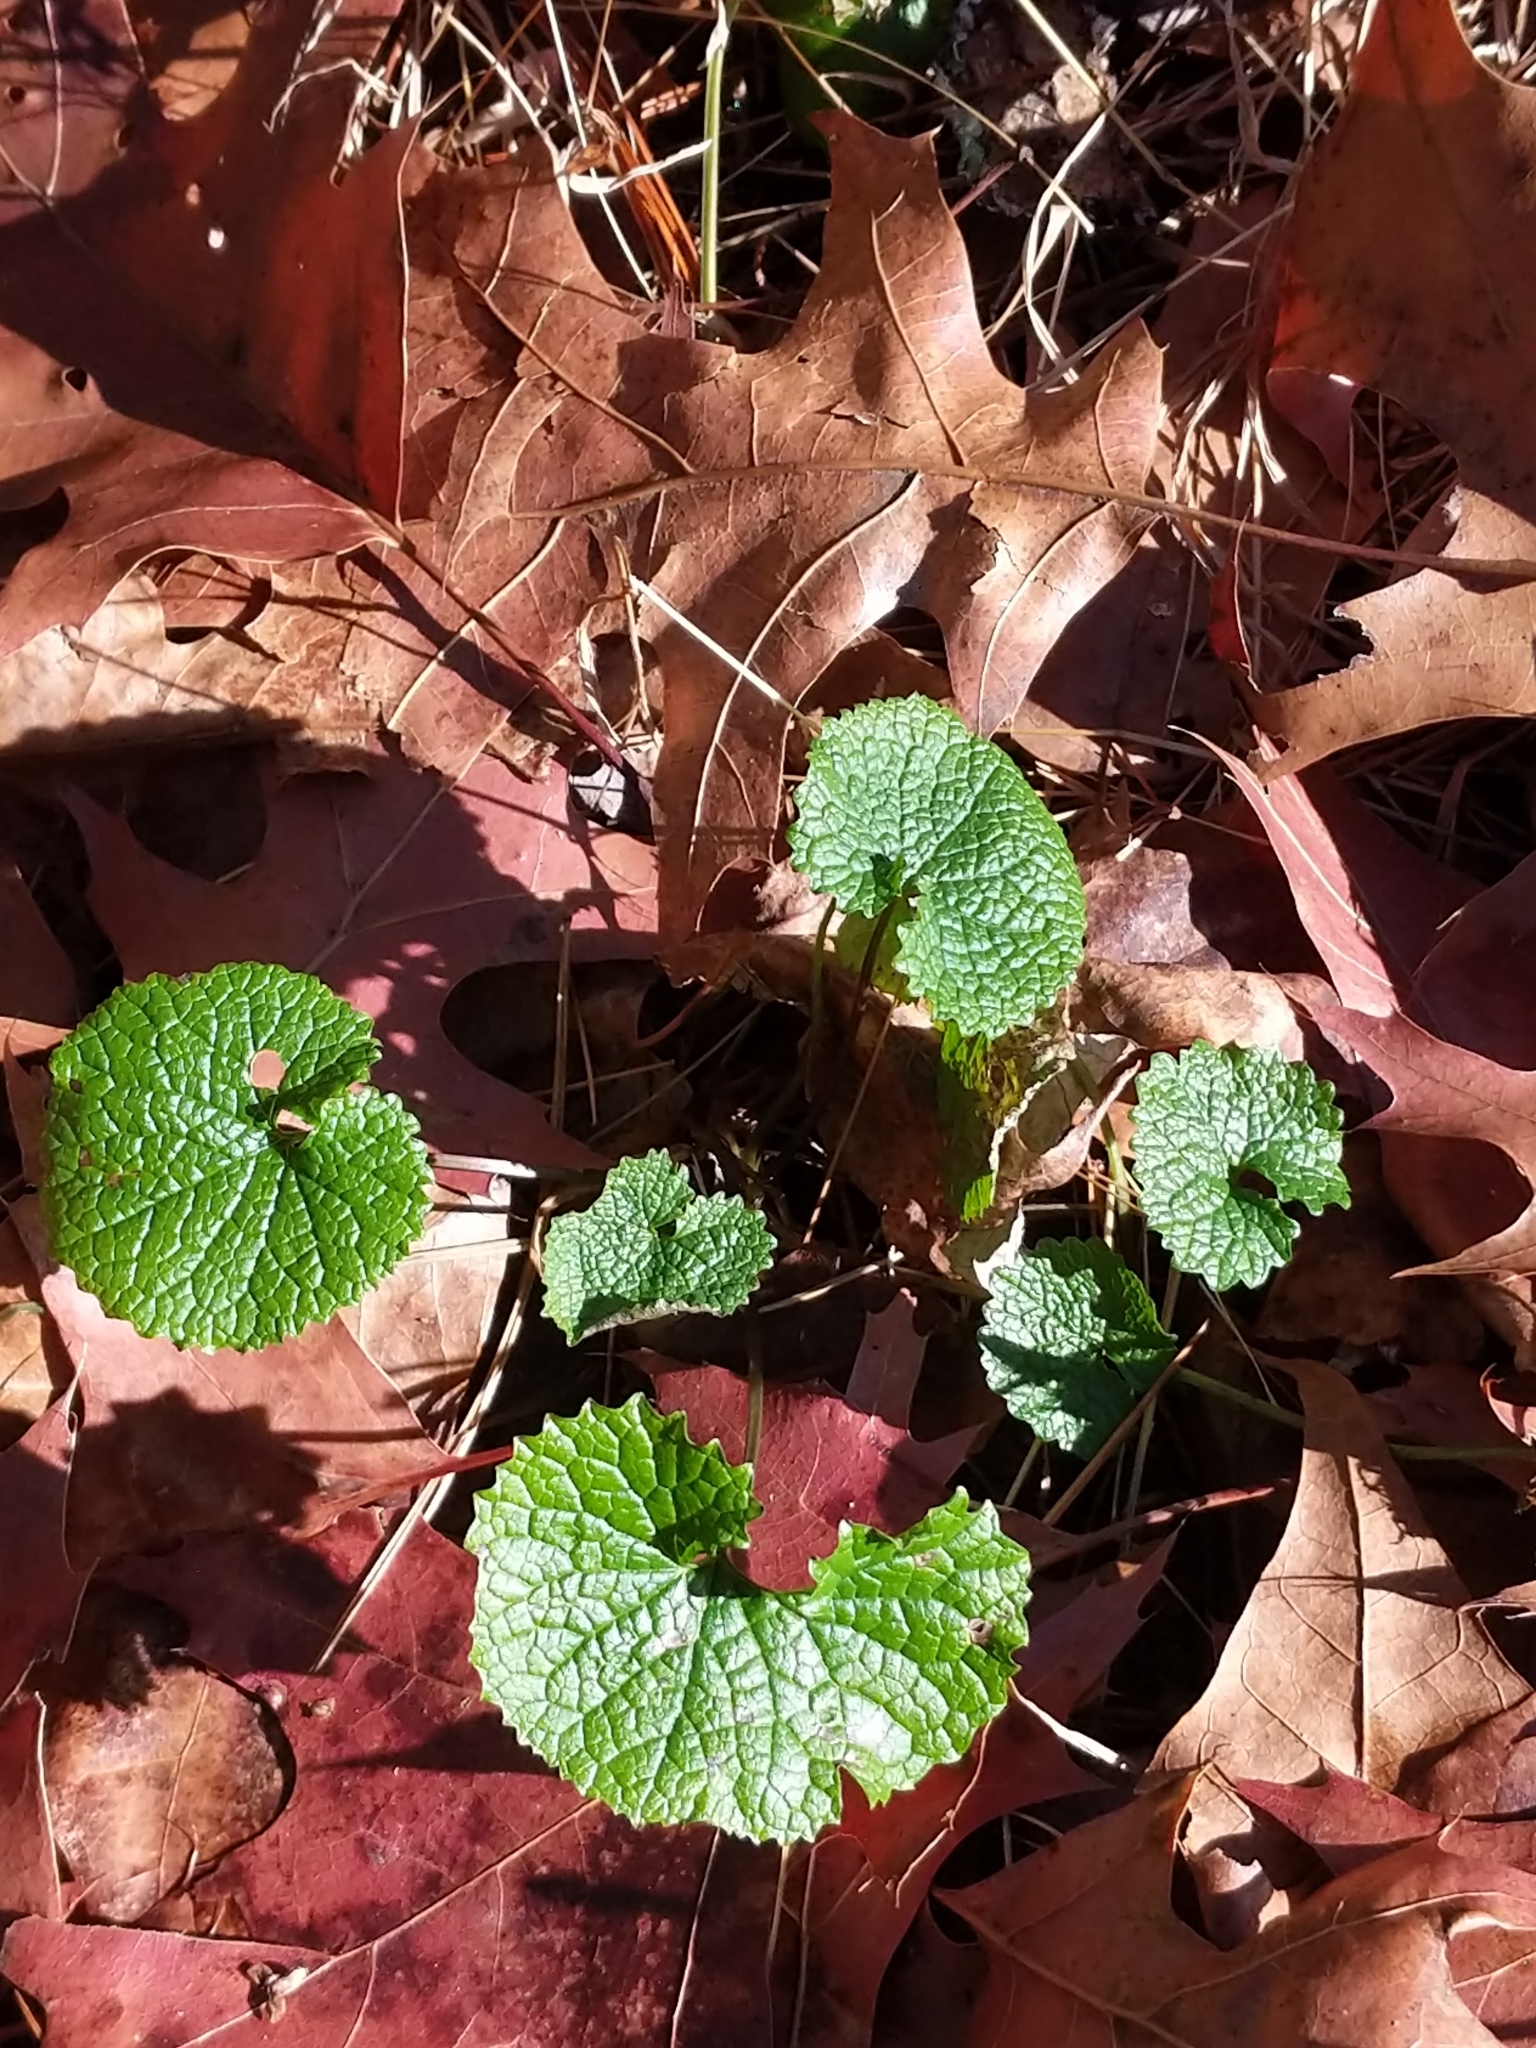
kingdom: Plantae
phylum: Tracheophyta
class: Magnoliopsida
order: Brassicales
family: Brassicaceae
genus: Alliaria
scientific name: Alliaria petiolata
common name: Garlic mustard
